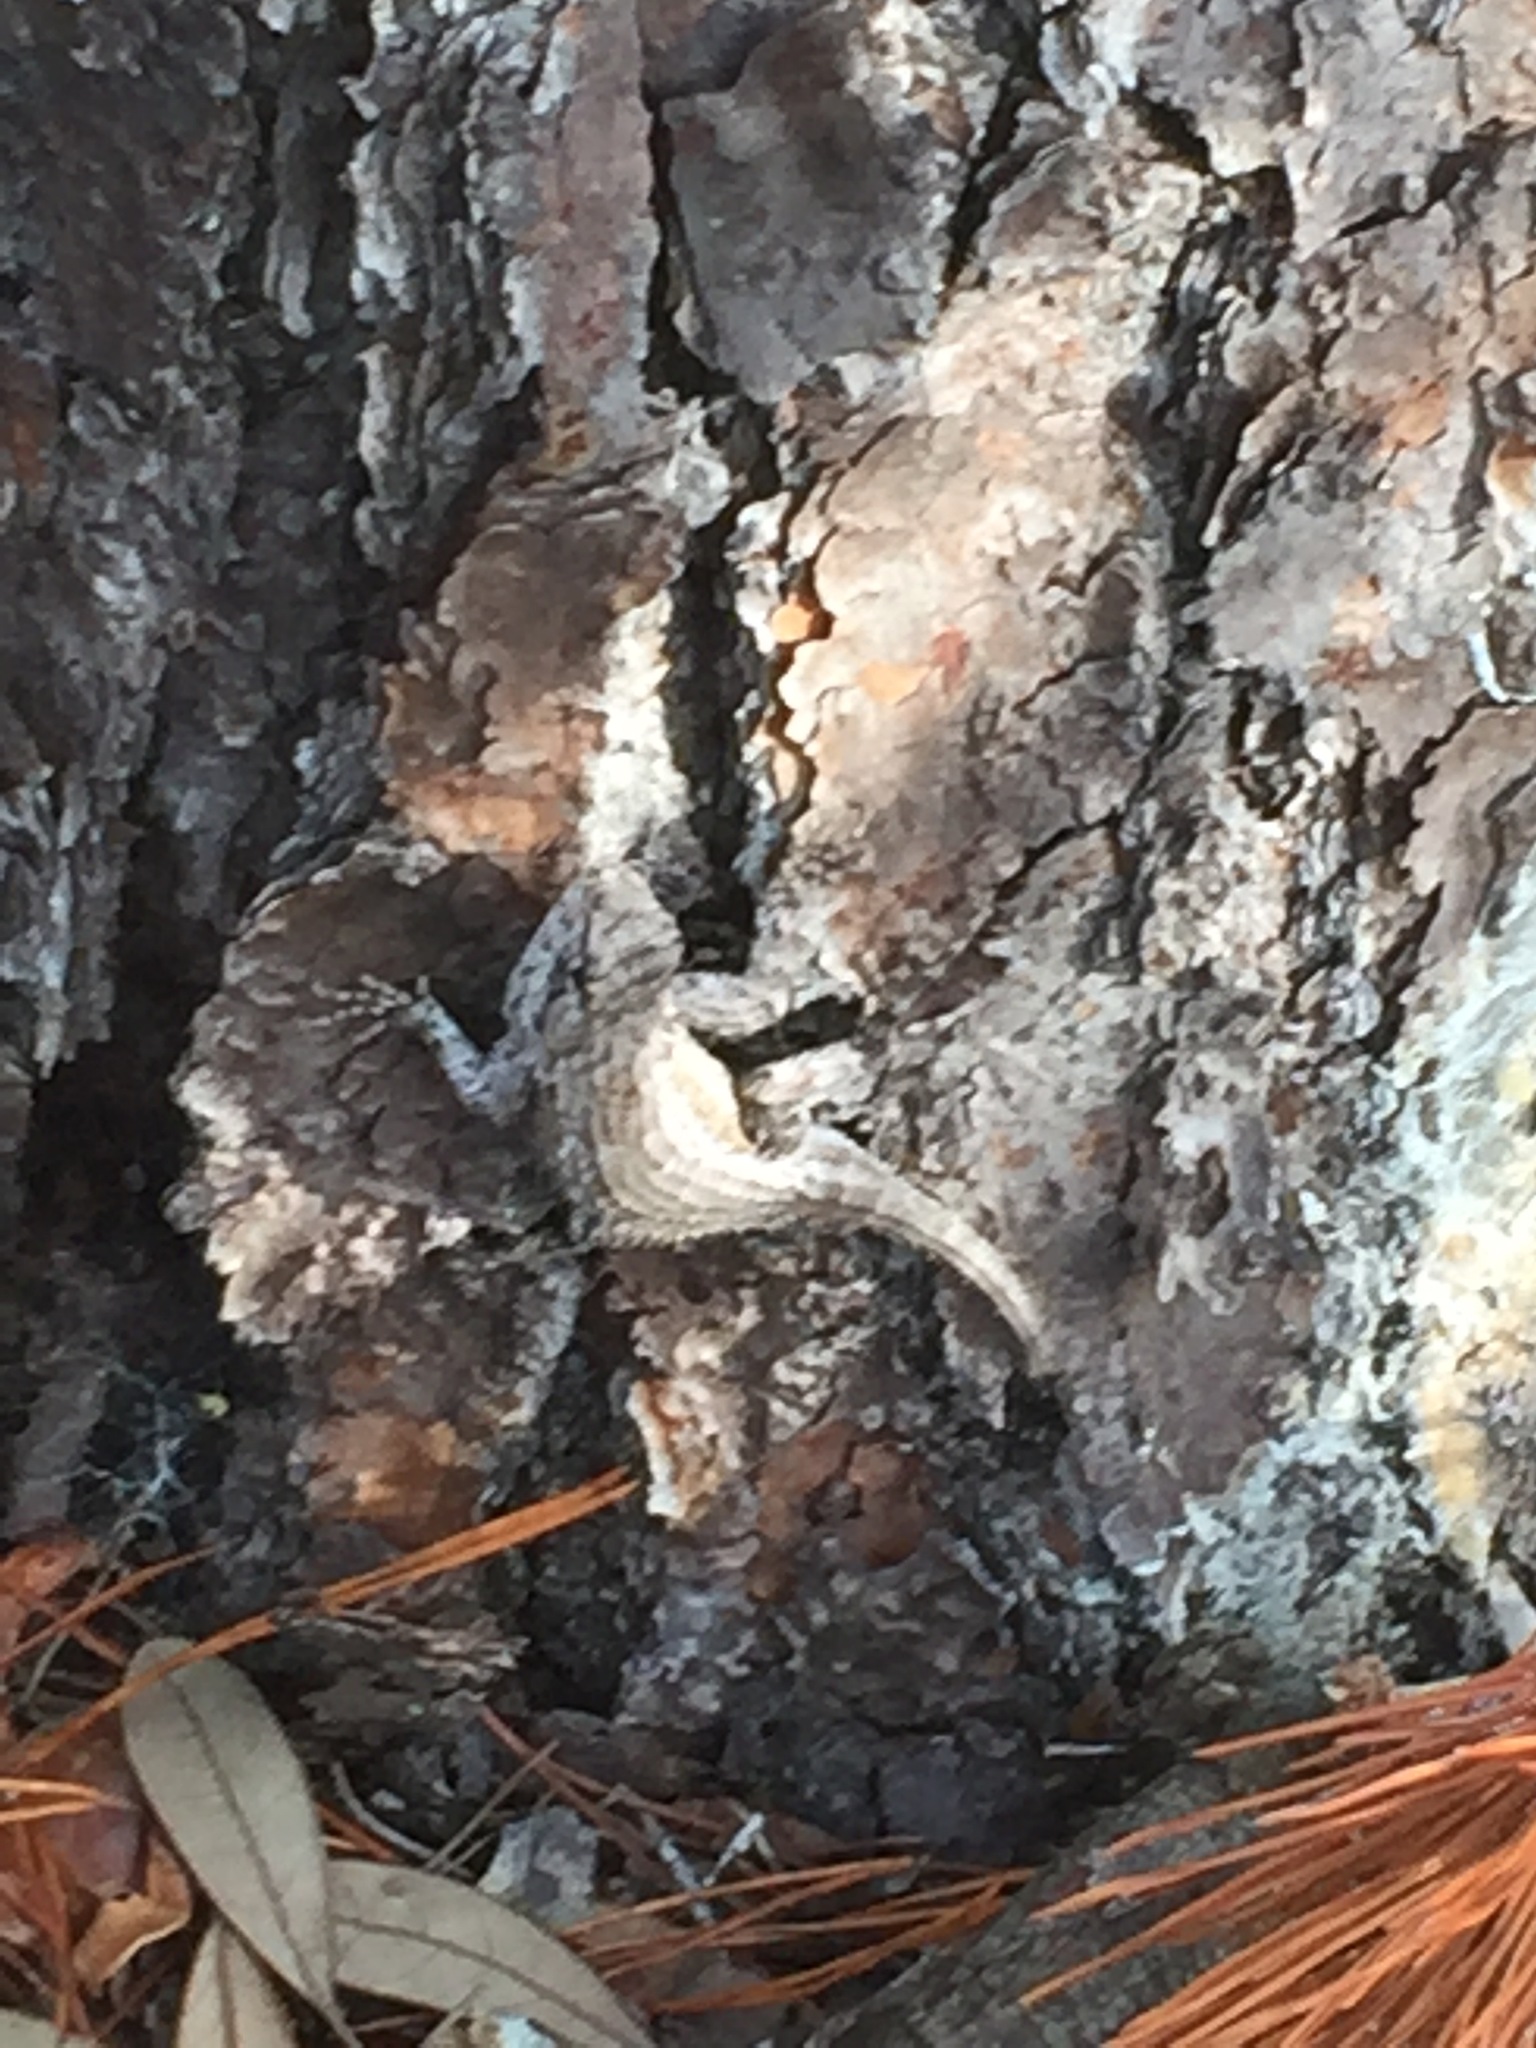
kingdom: Animalia
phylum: Chordata
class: Squamata
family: Phrynosomatidae
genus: Sceloporus
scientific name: Sceloporus undulatus
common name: Eastern fence lizard
